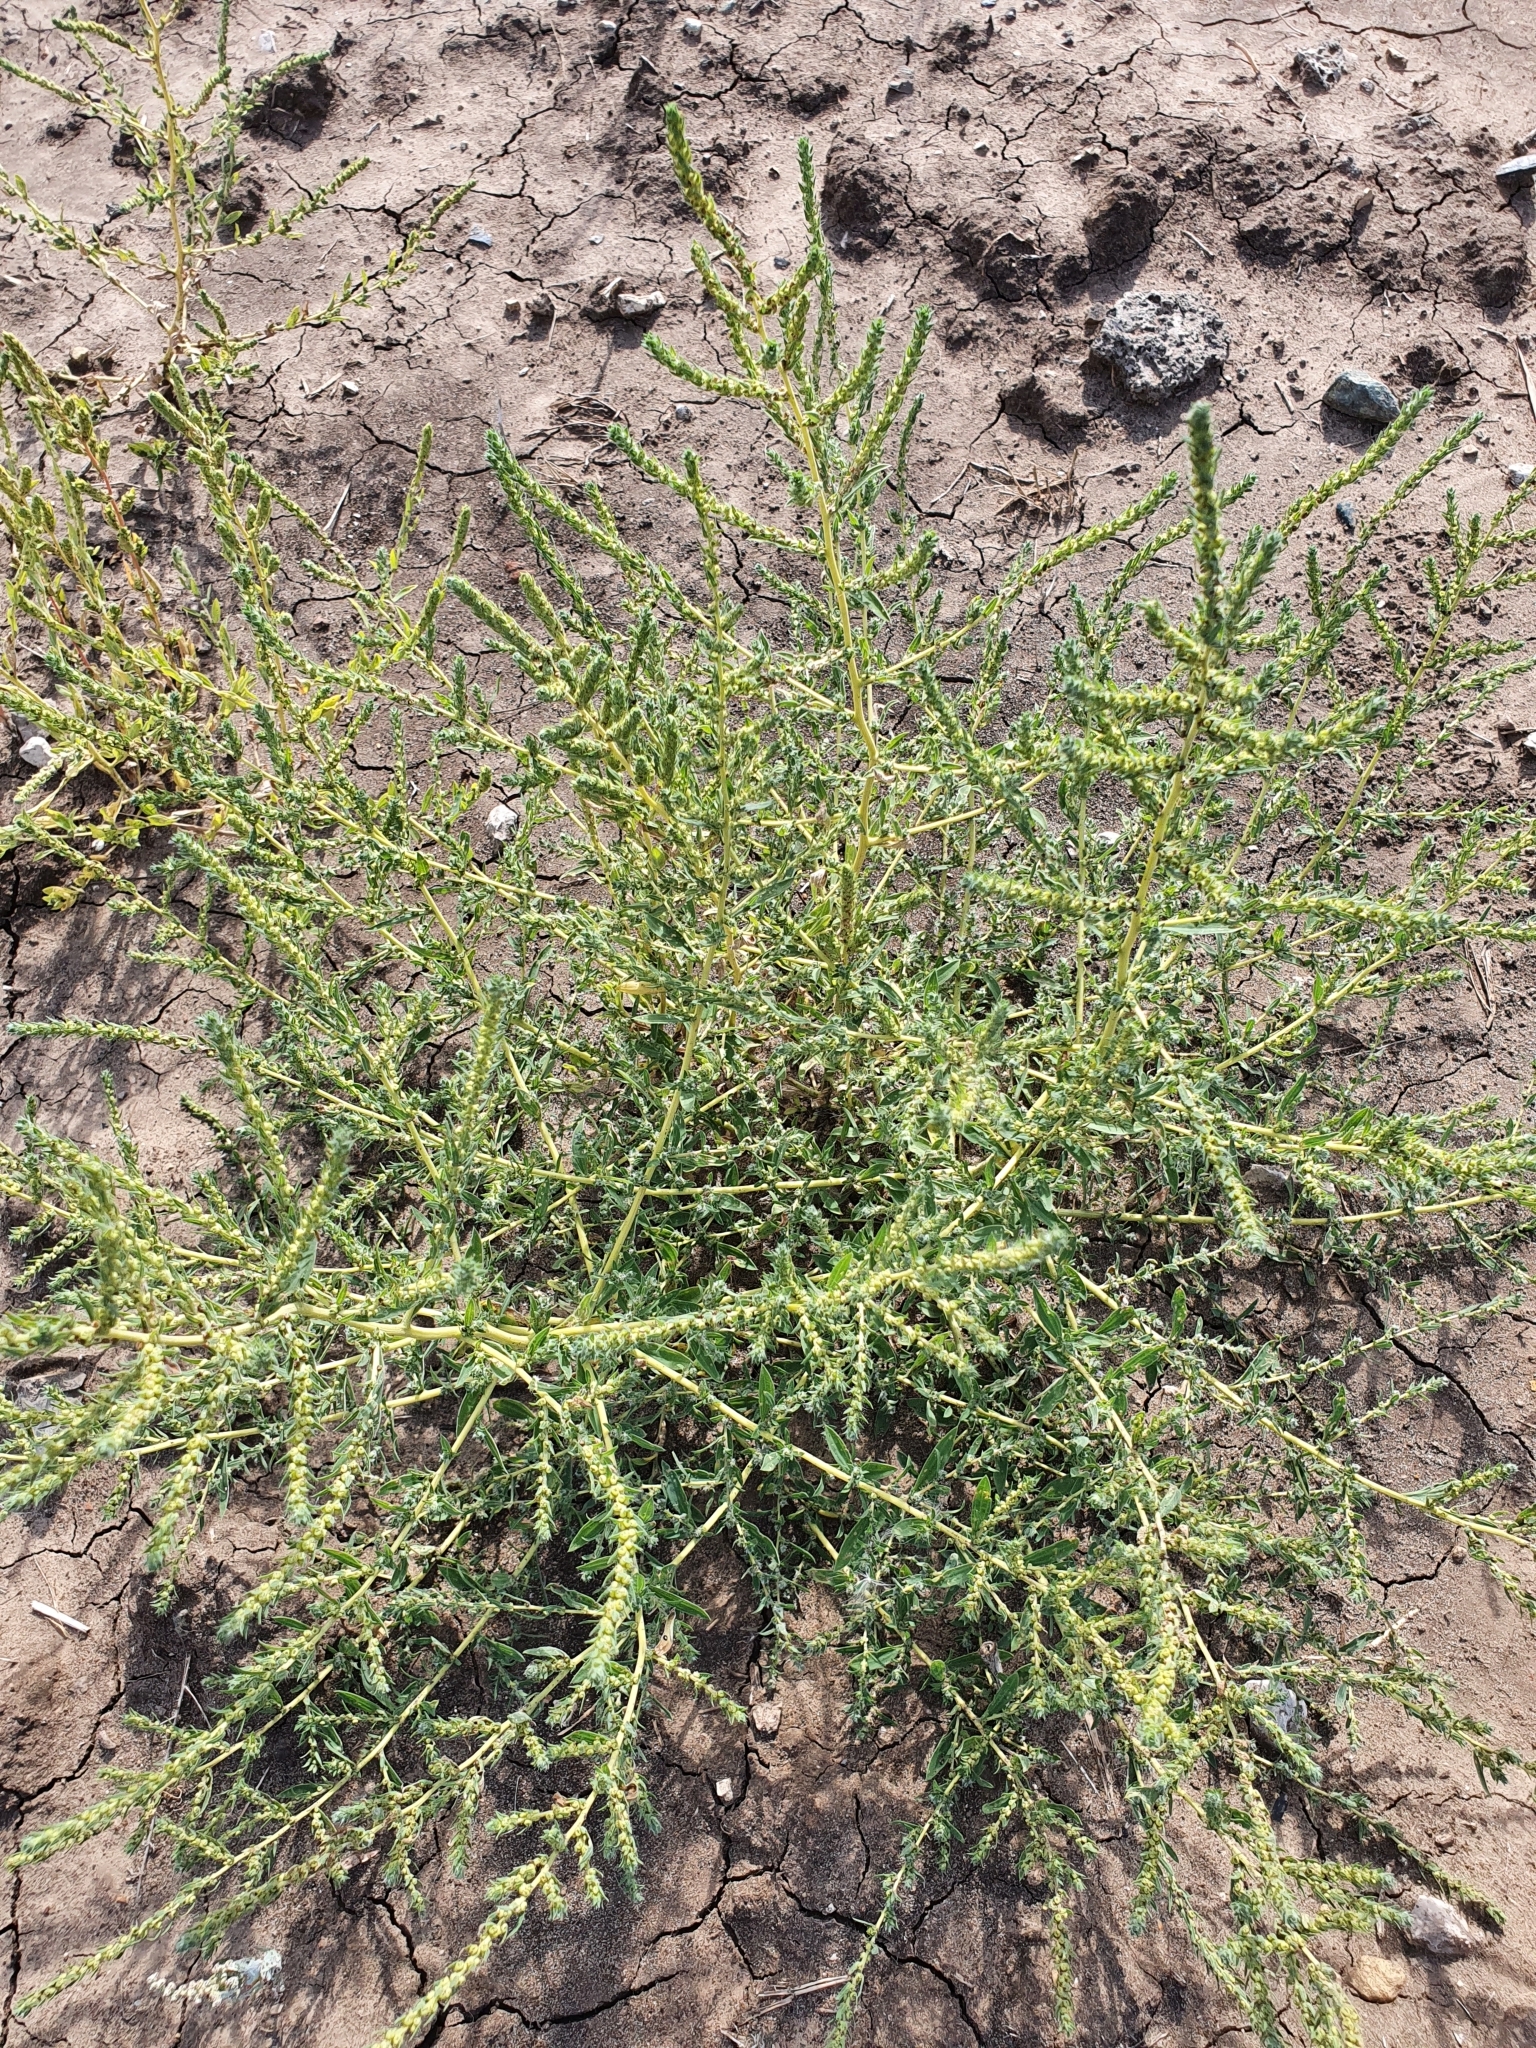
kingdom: Plantae
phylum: Tracheophyta
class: Magnoliopsida
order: Caryophyllales
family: Amaranthaceae
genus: Bassia
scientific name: Bassia scoparia
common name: Belvedere
